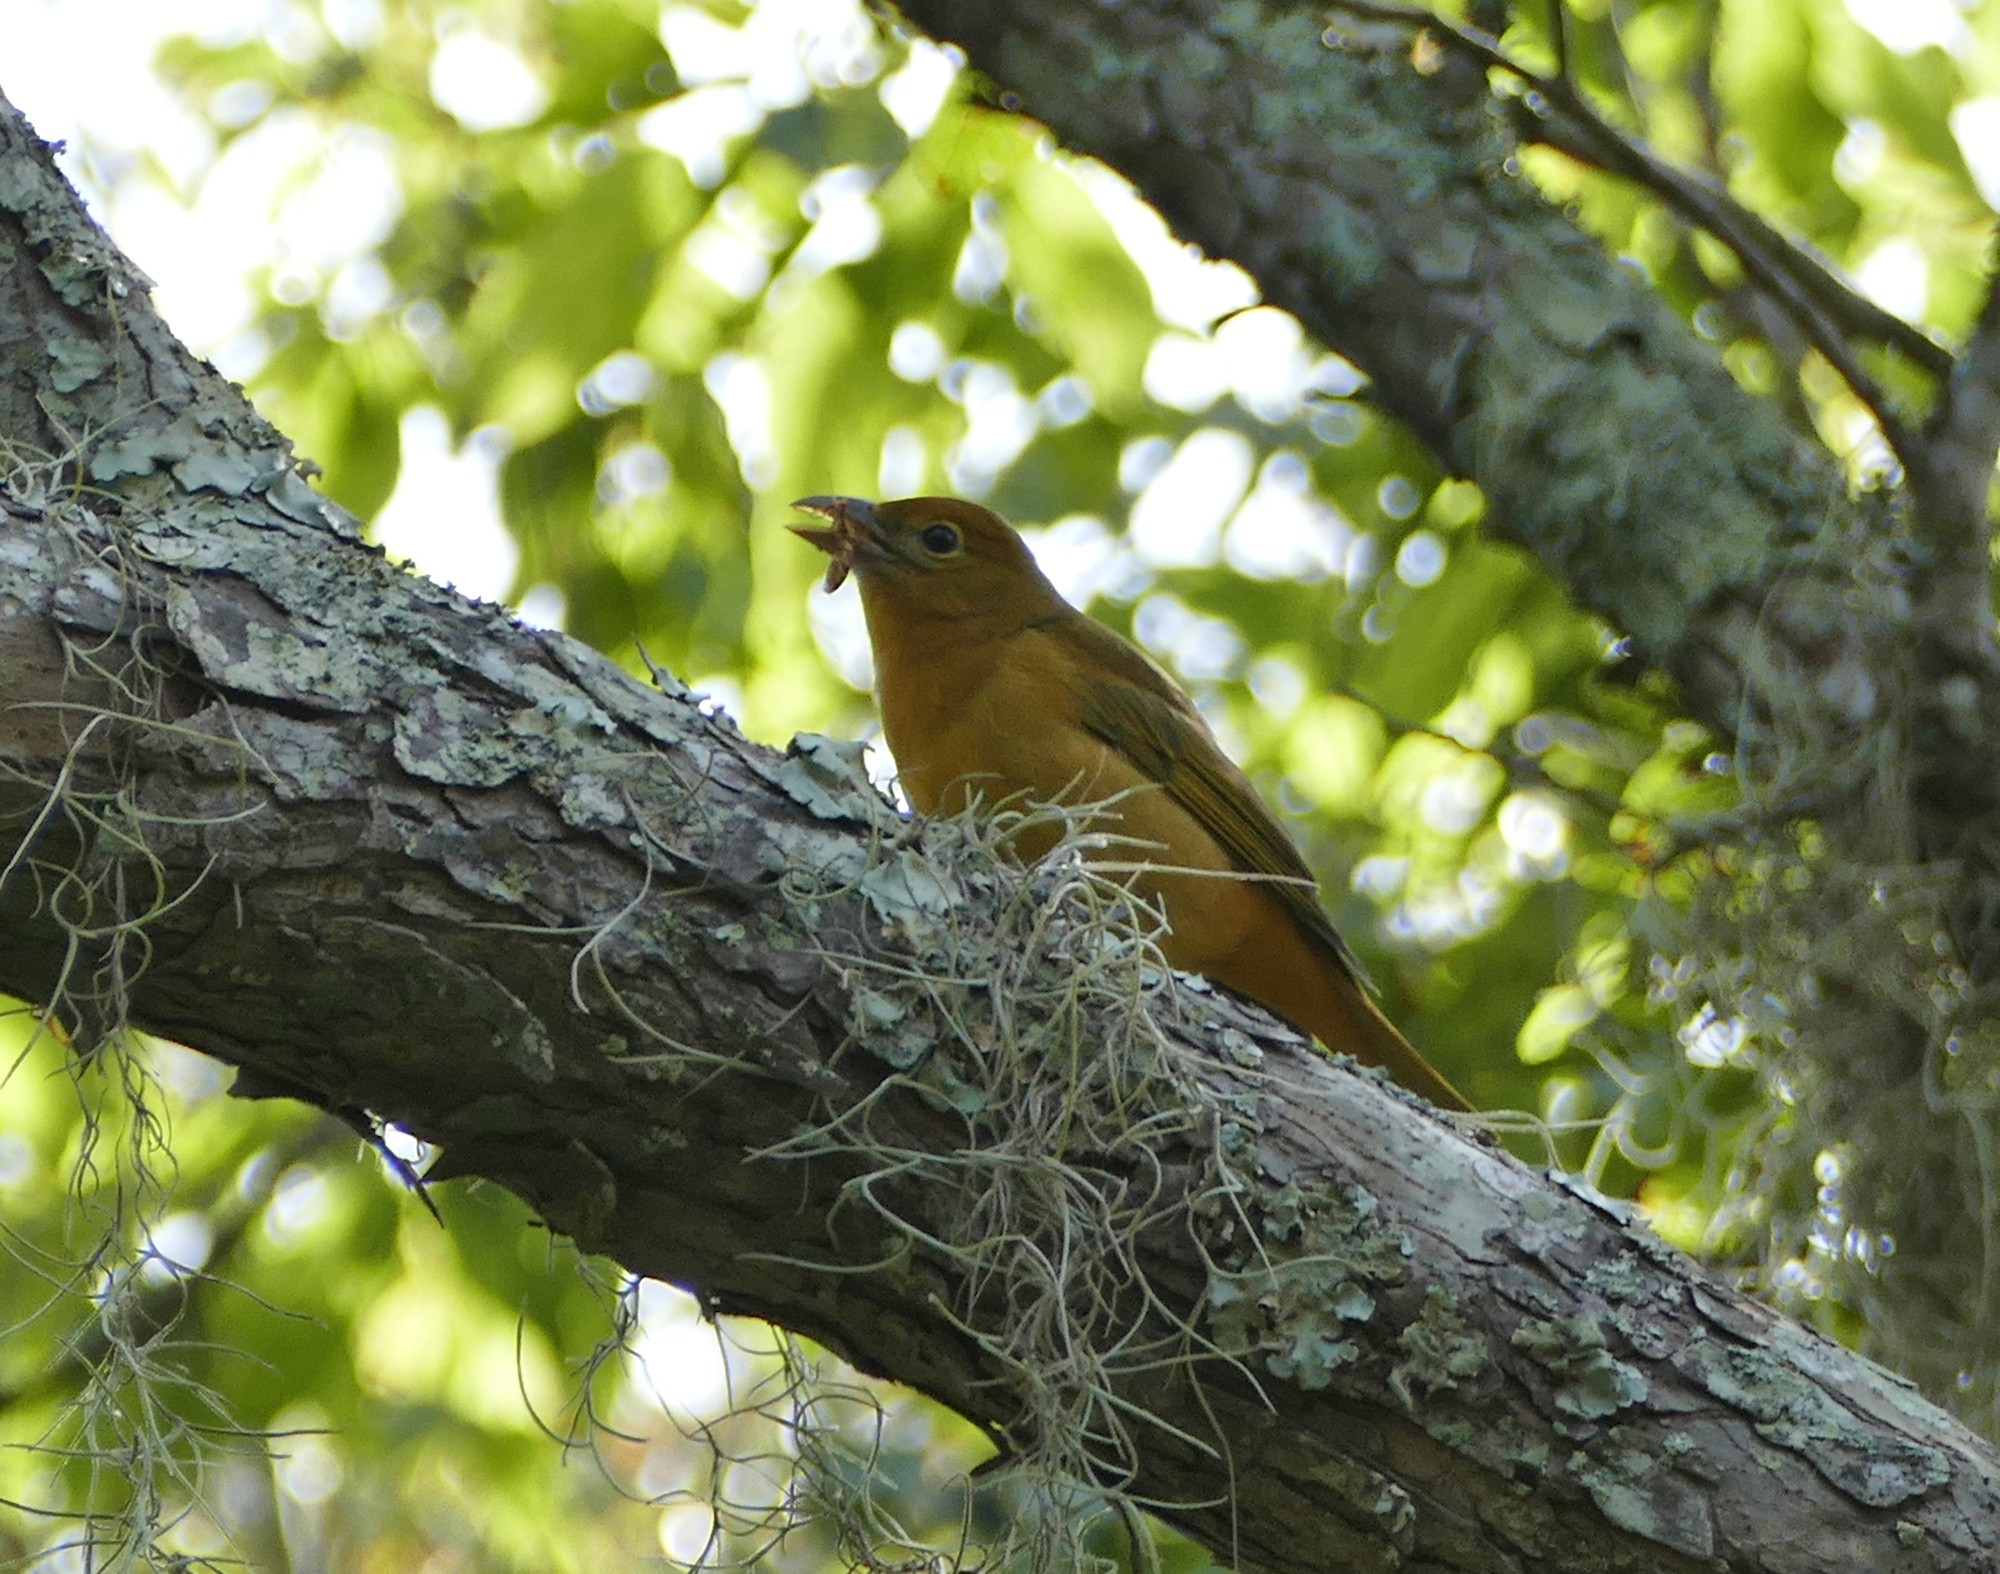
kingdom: Animalia
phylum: Chordata
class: Aves
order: Passeriformes
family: Cardinalidae
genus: Piranga
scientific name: Piranga rubra
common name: Summer tanager
